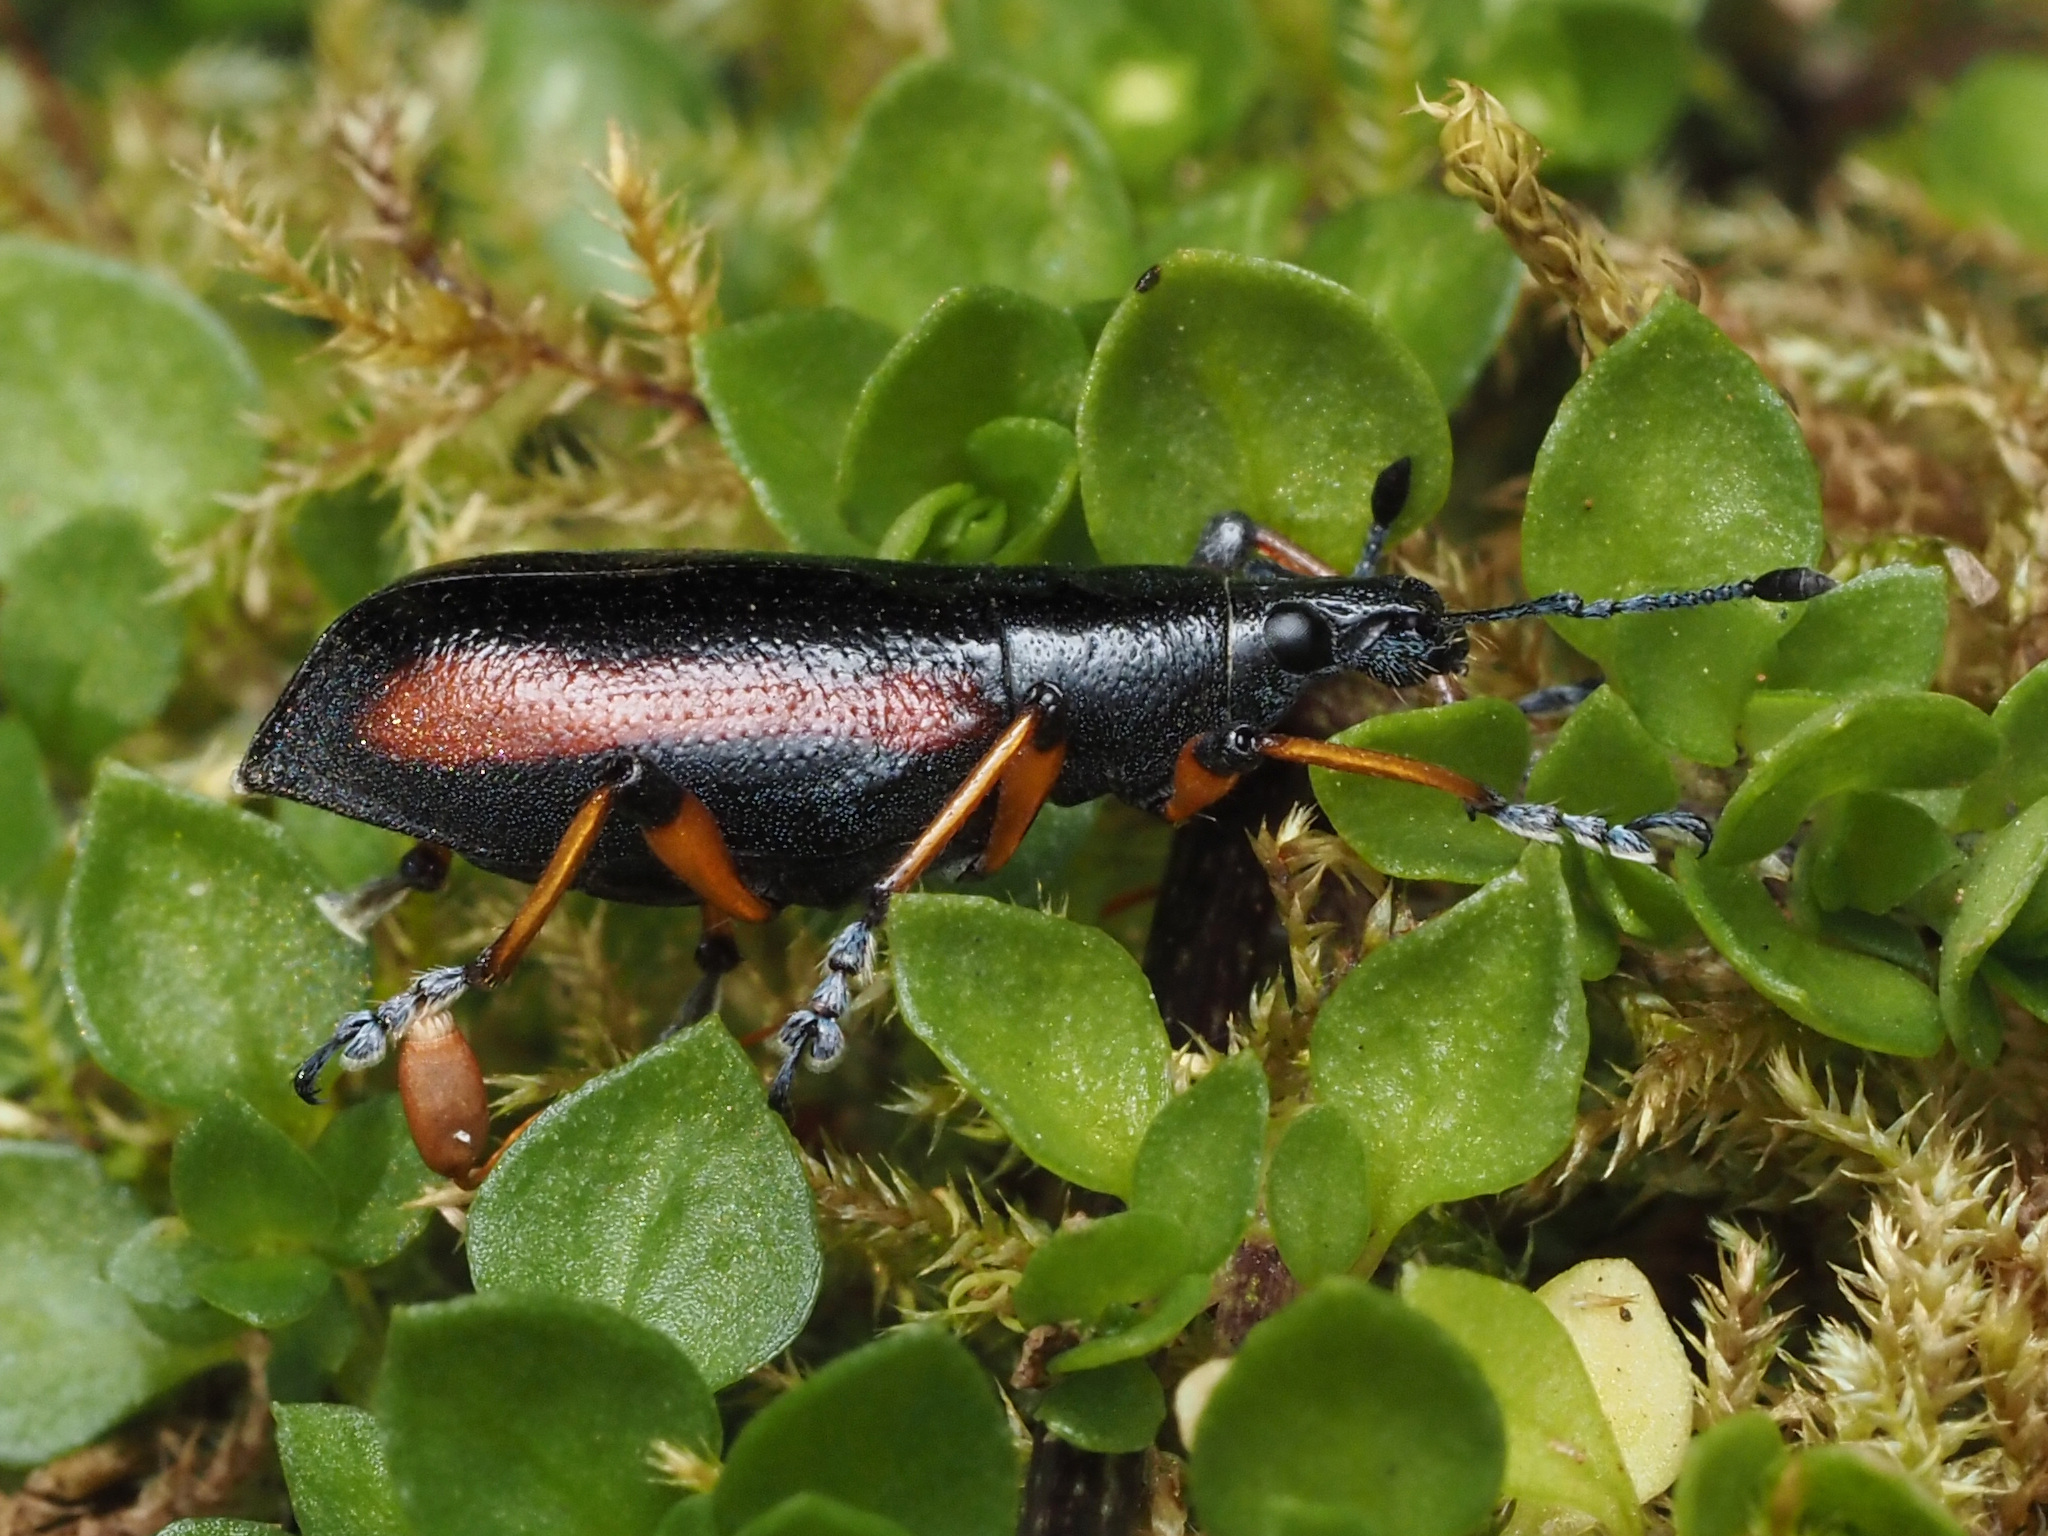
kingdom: Animalia
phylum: Arthropoda
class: Insecta
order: Coleoptera
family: Curculionidae
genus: Chauliopleurus
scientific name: Chauliopleurus rufovittatus
